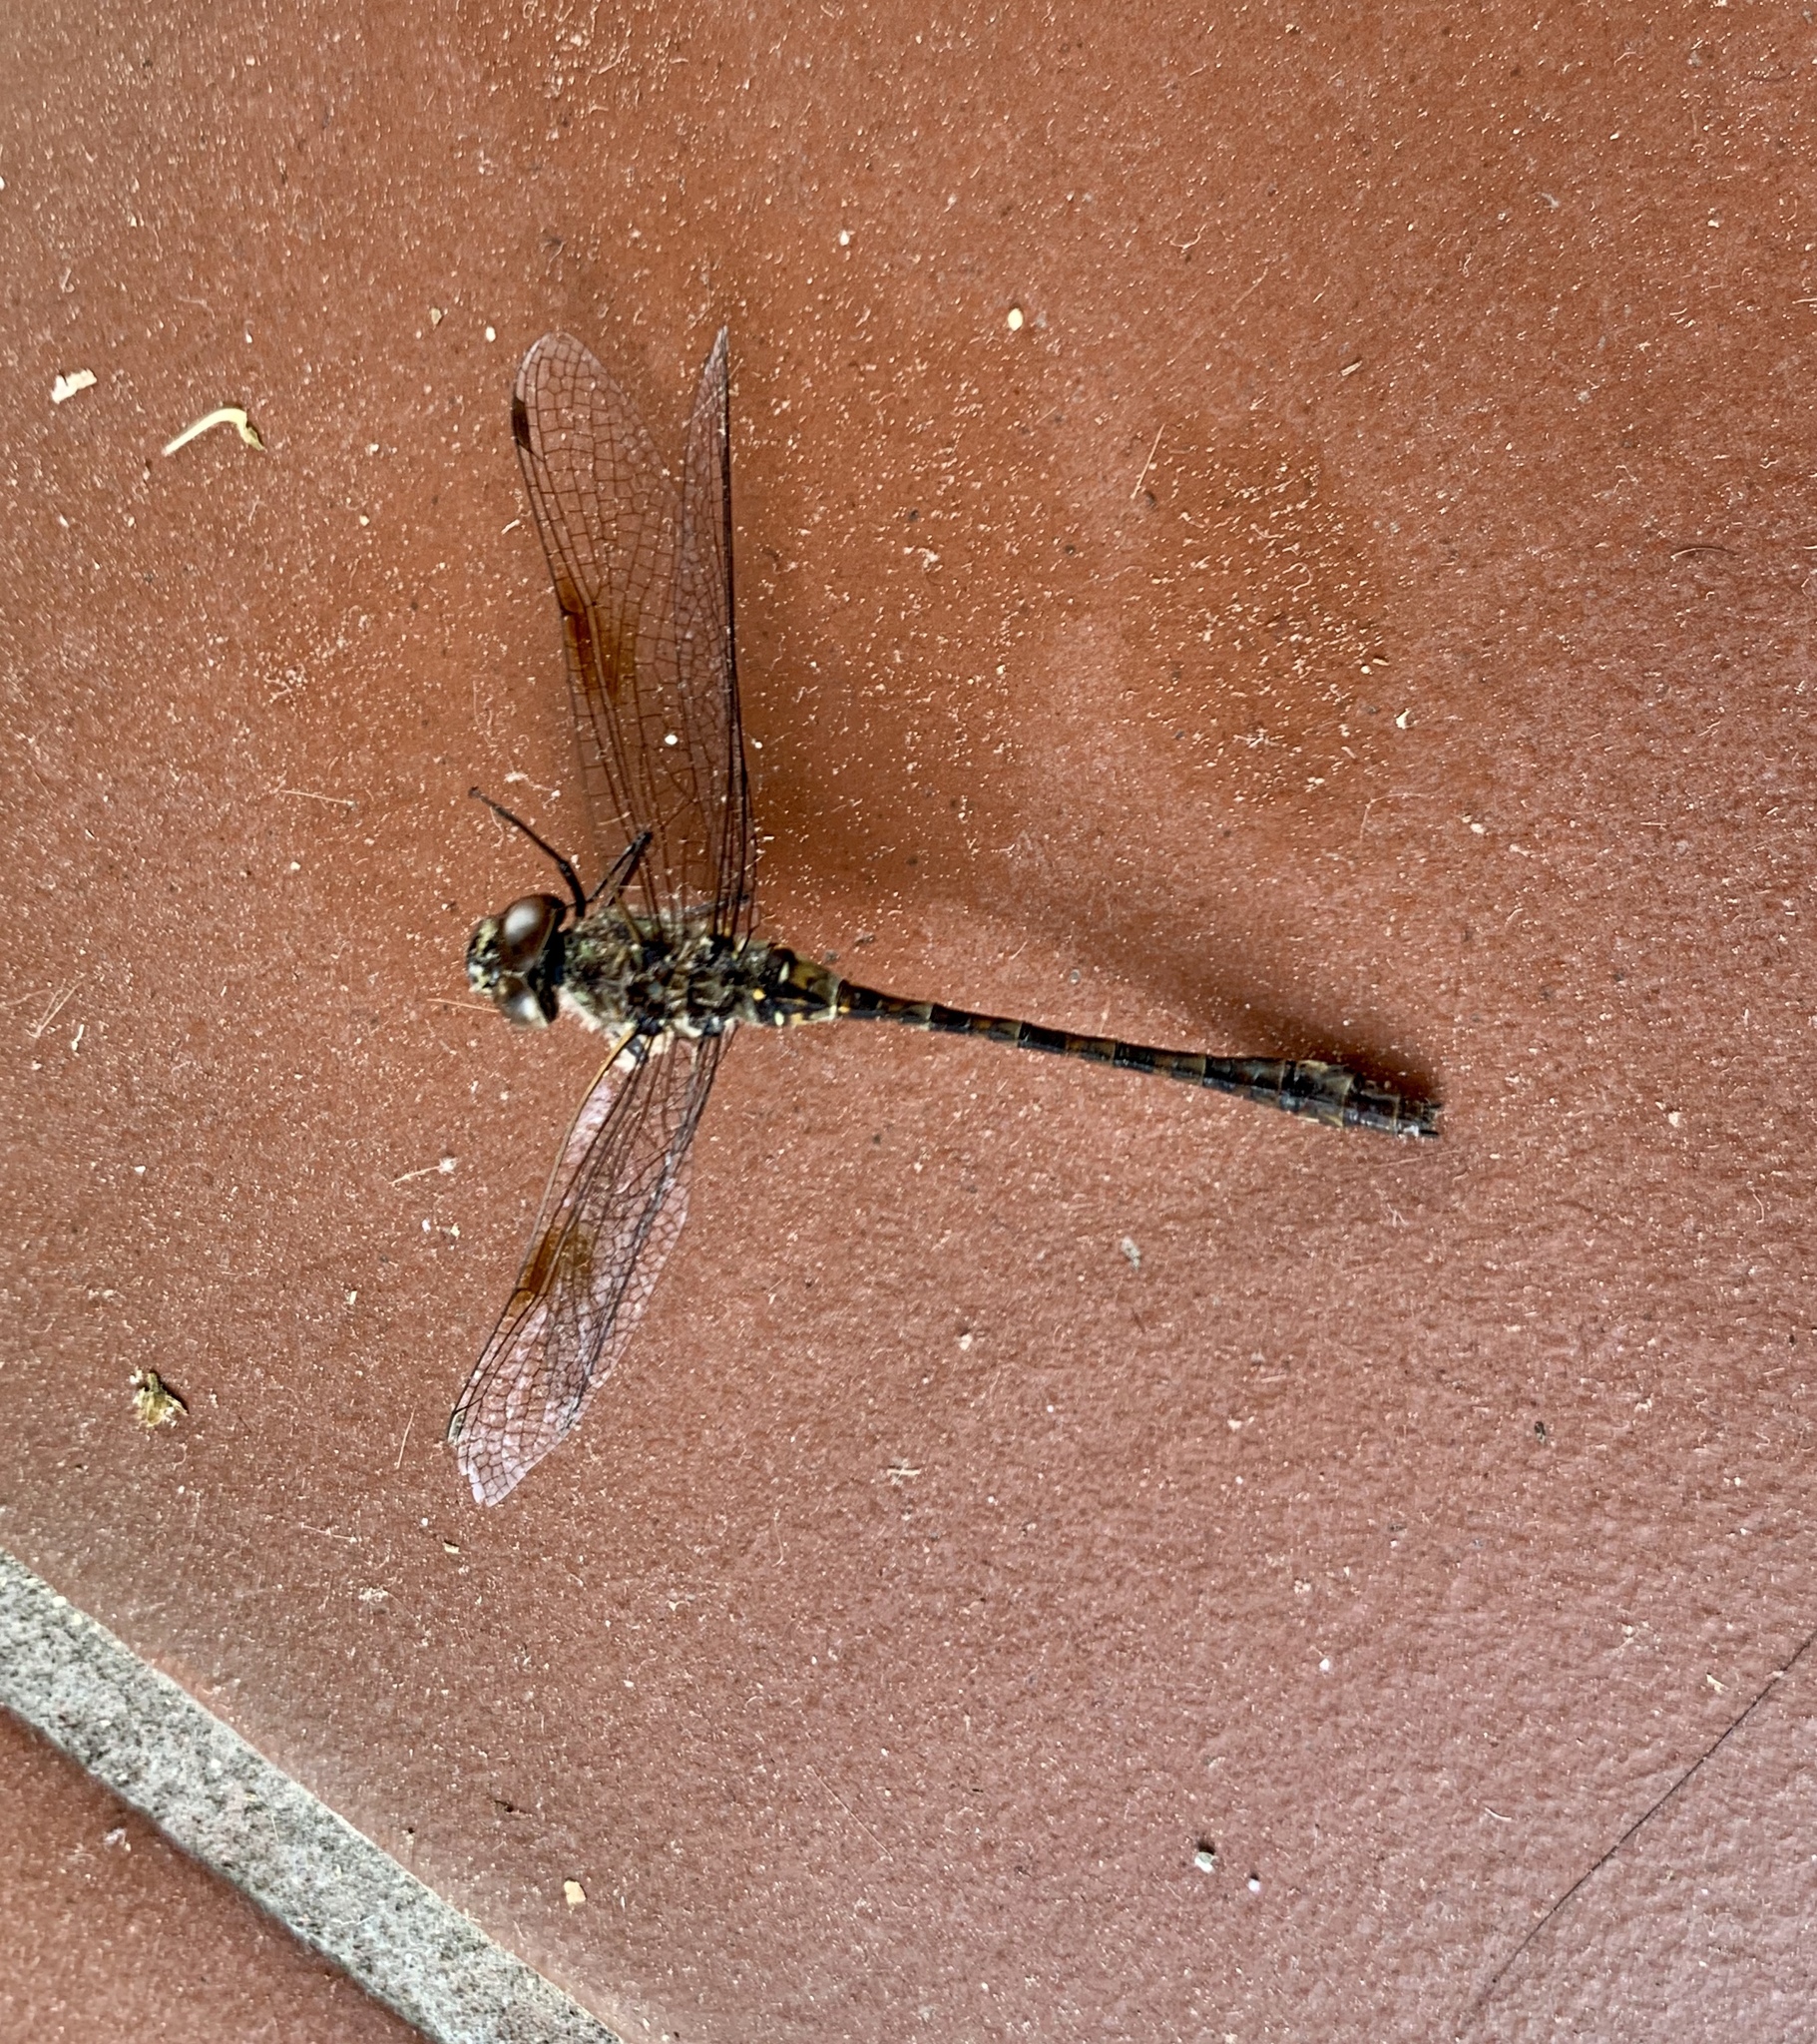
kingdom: Animalia
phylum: Arthropoda
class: Insecta
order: Odonata
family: Aeshnidae
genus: Gomphaeschna
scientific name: Gomphaeschna antilope
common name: Taper-tailed darner
